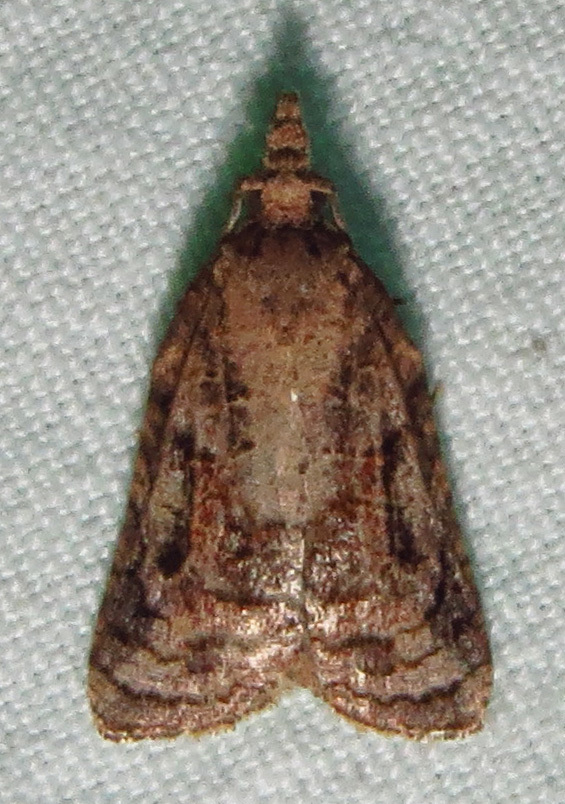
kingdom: Animalia
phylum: Arthropoda
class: Insecta
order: Lepidoptera
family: Tortricidae
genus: Platynota
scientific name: Platynota idaeusalis
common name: Tufted apple bud moth
